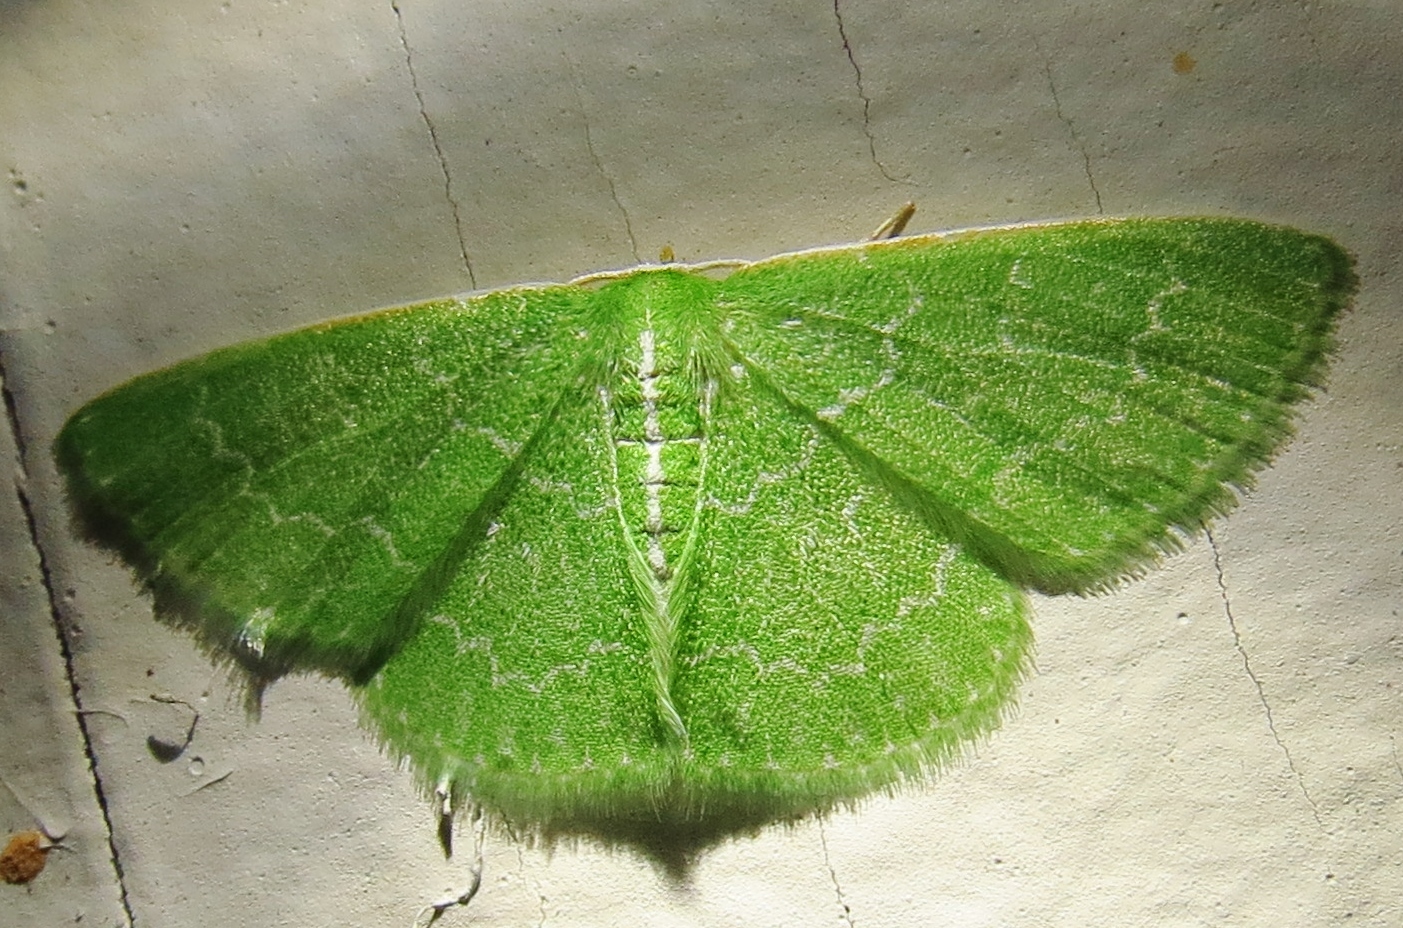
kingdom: Animalia
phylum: Arthropoda
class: Insecta
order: Lepidoptera
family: Geometridae
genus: Synchlora
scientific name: Synchlora frondaria
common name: Southern emerald
